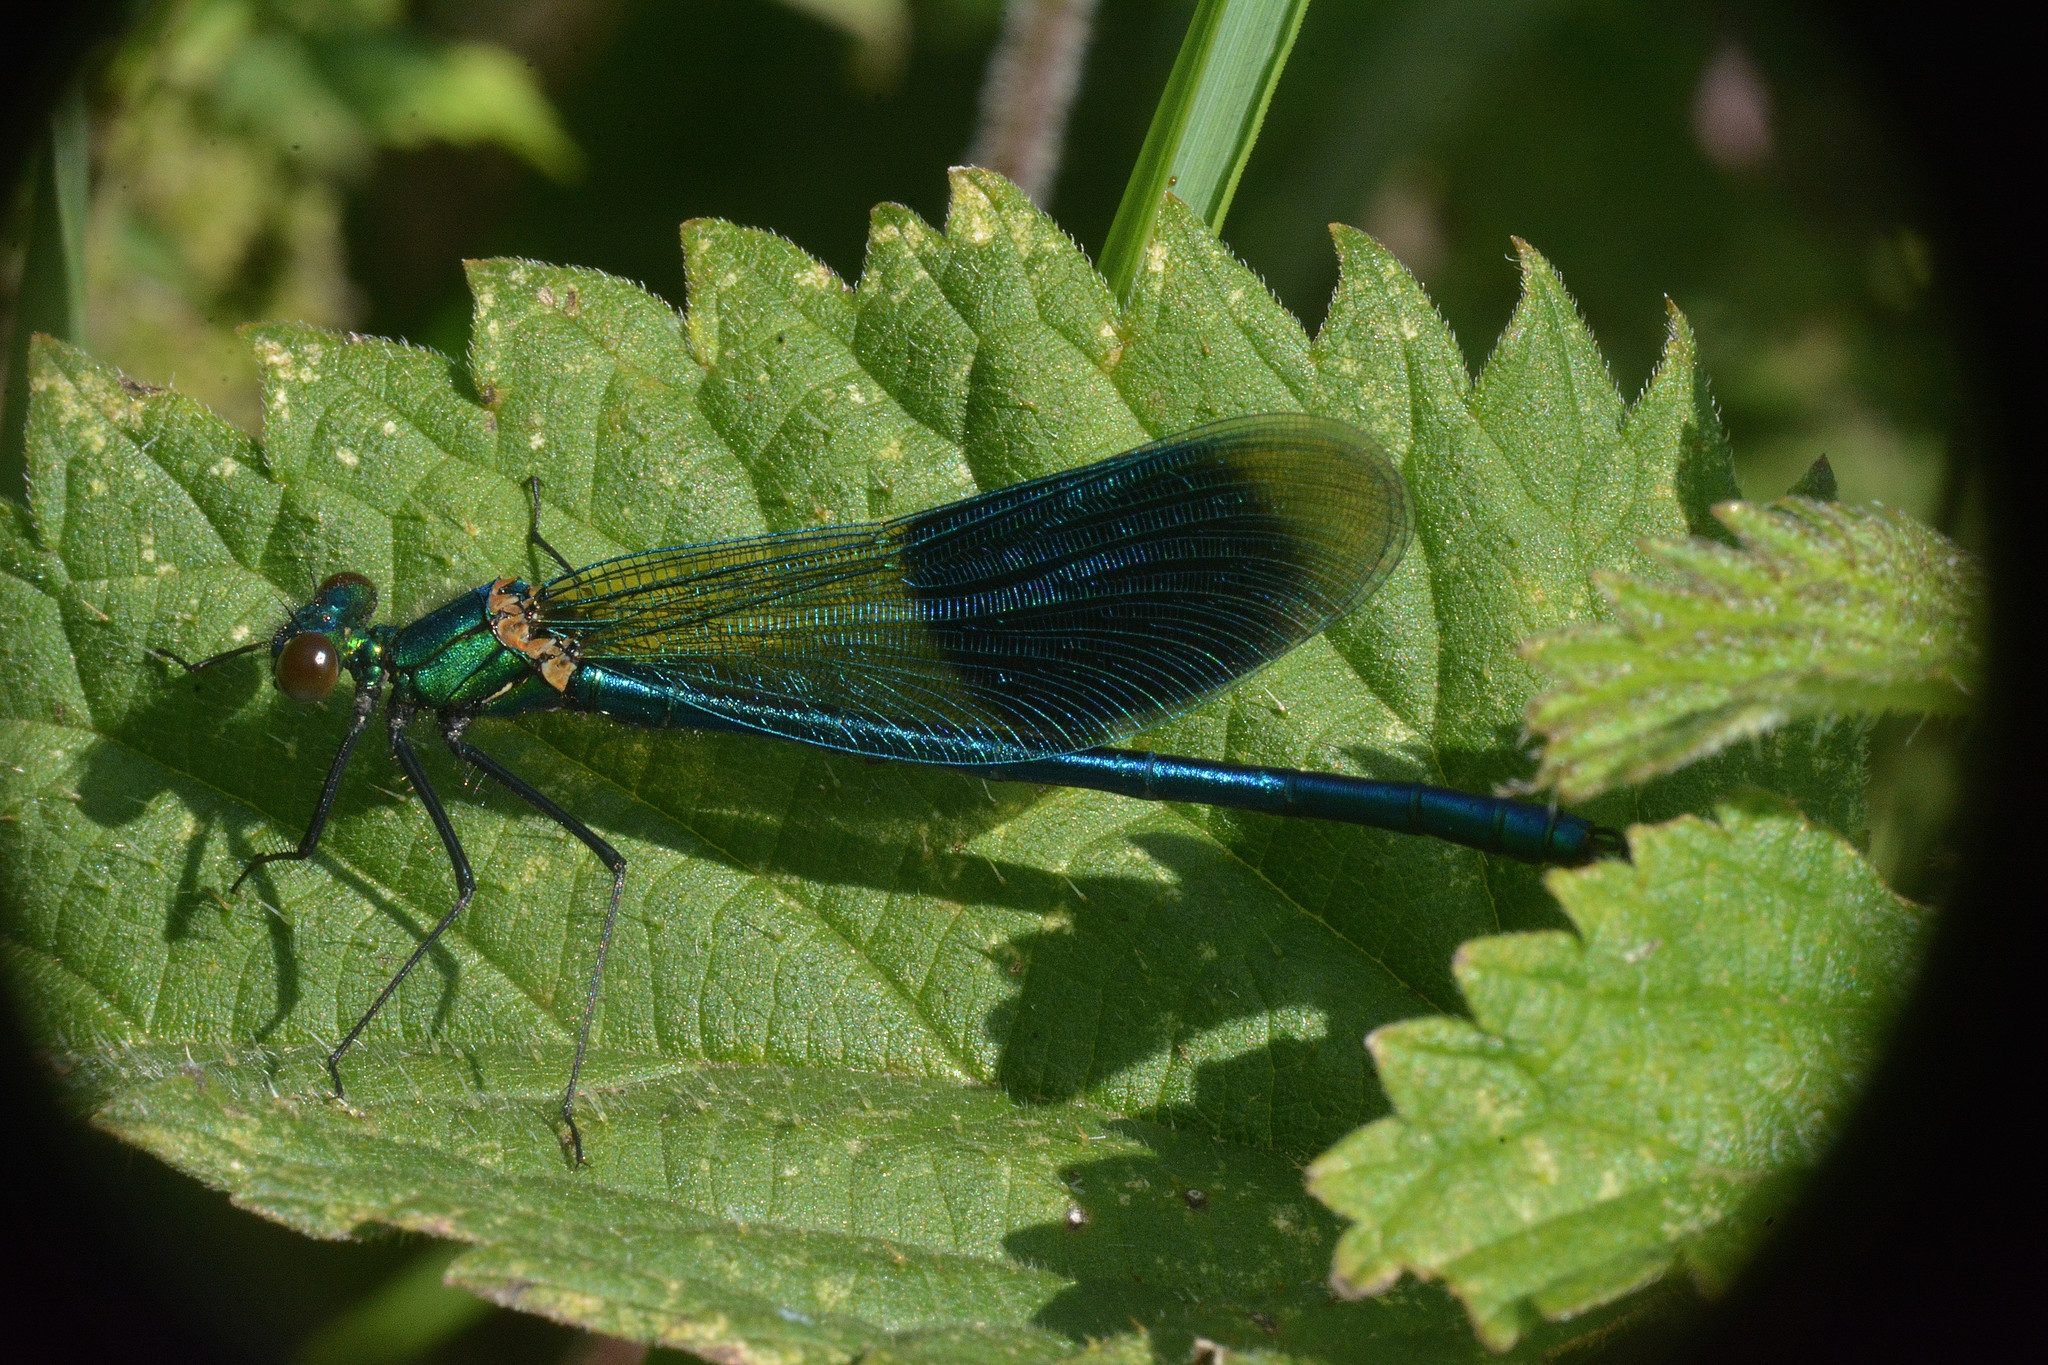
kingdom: Animalia
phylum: Arthropoda
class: Insecta
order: Odonata
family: Calopterygidae
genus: Calopteryx
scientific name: Calopteryx splendens
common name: Banded demoiselle
